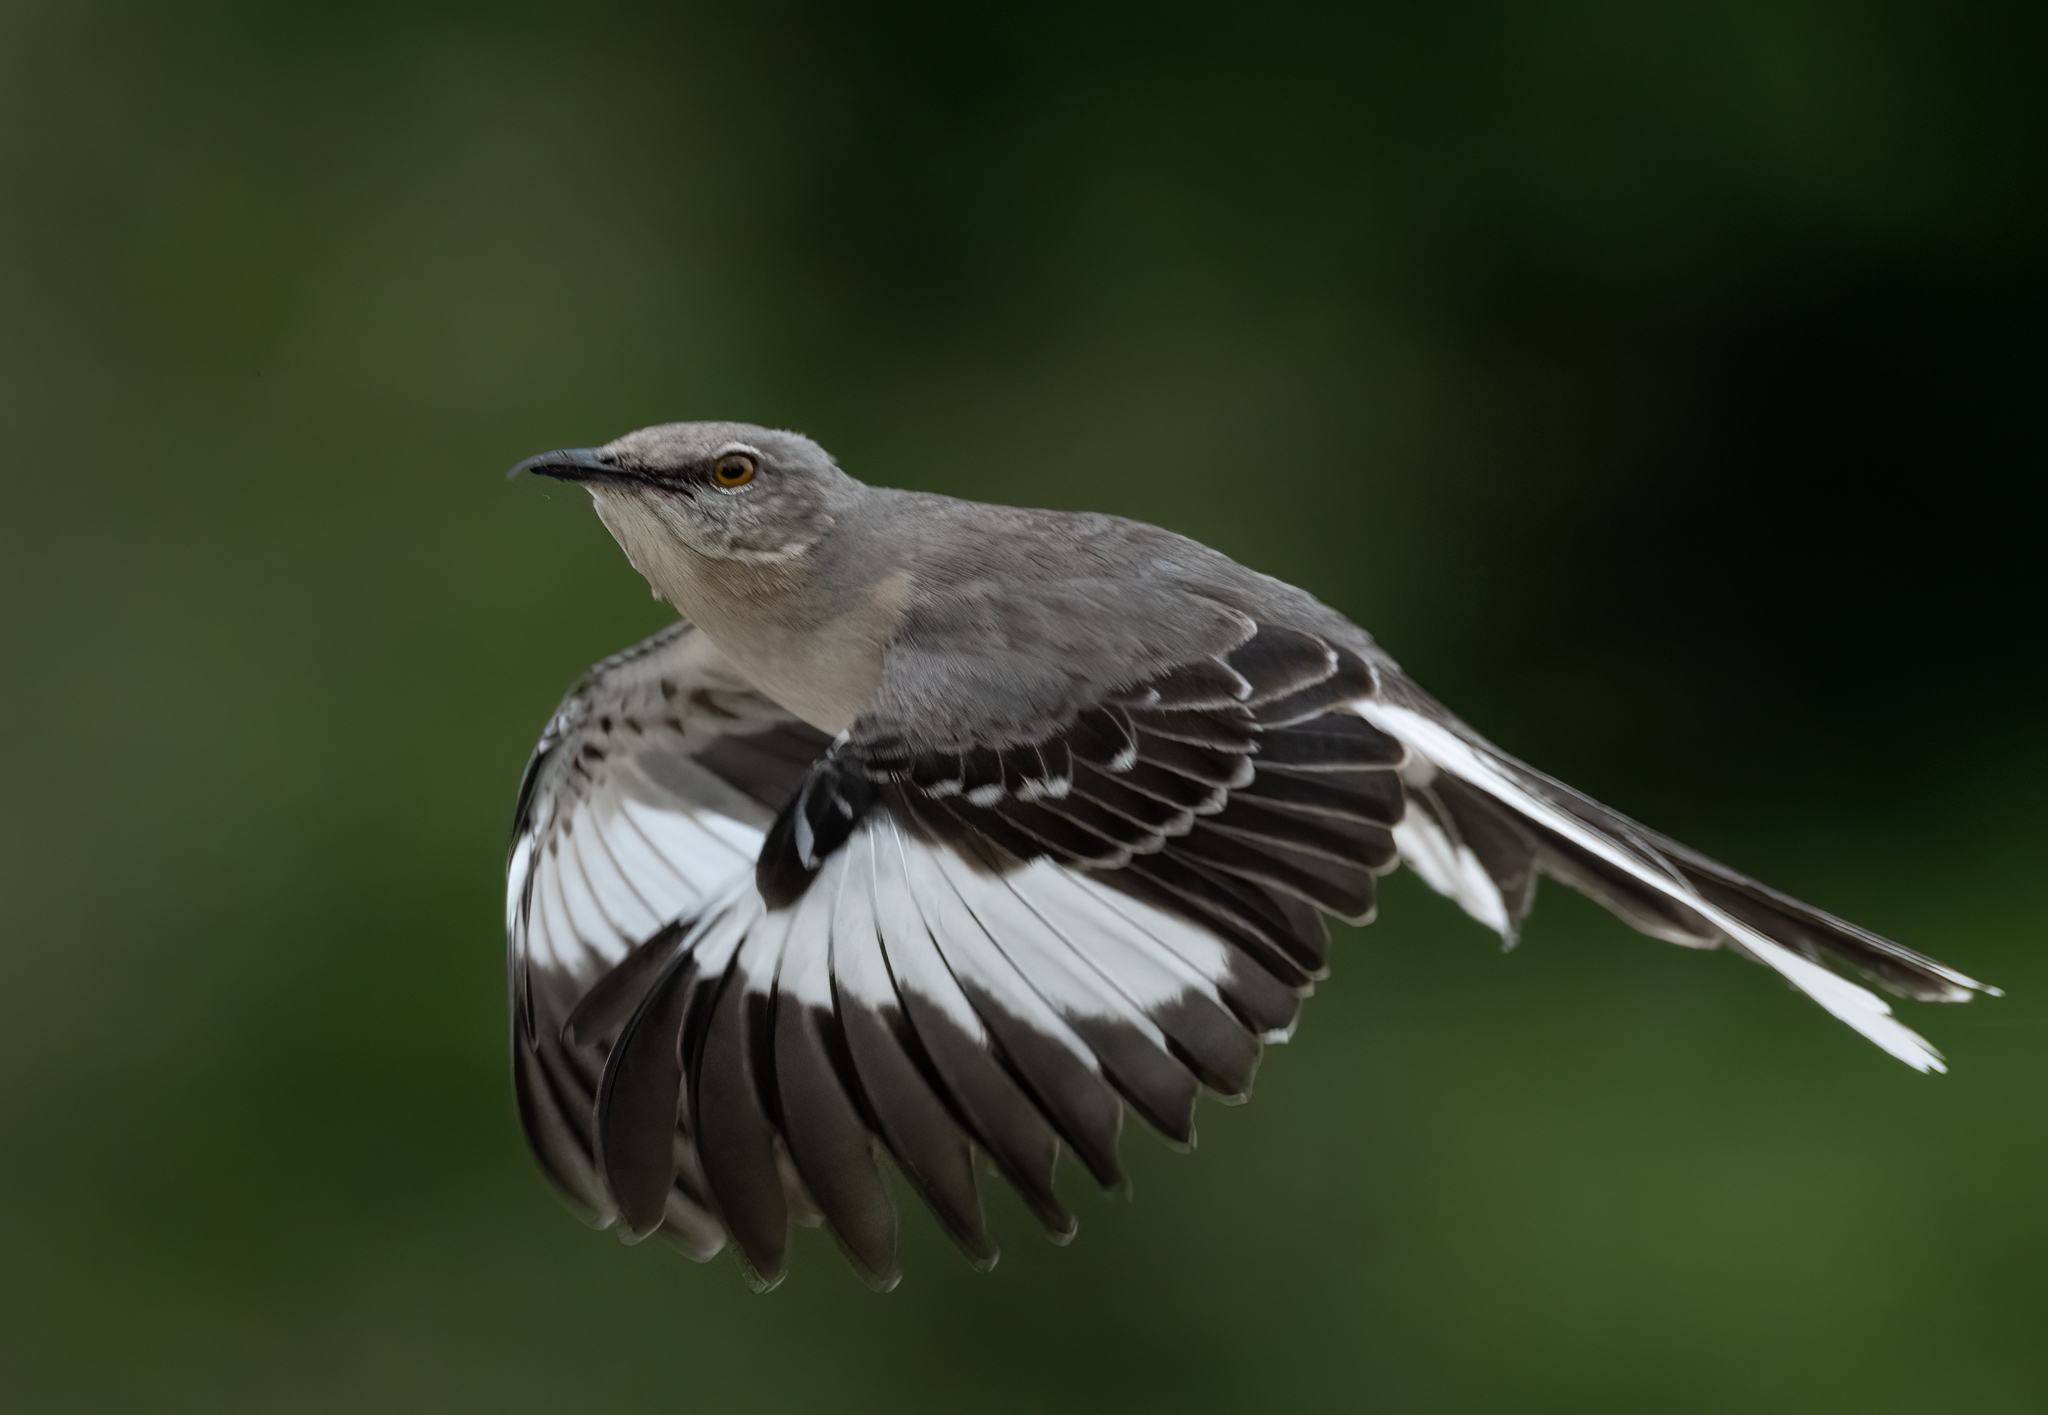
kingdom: Animalia
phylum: Chordata
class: Aves
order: Passeriformes
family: Mimidae
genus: Mimus
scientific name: Mimus polyglottos
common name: Northern mockingbird
